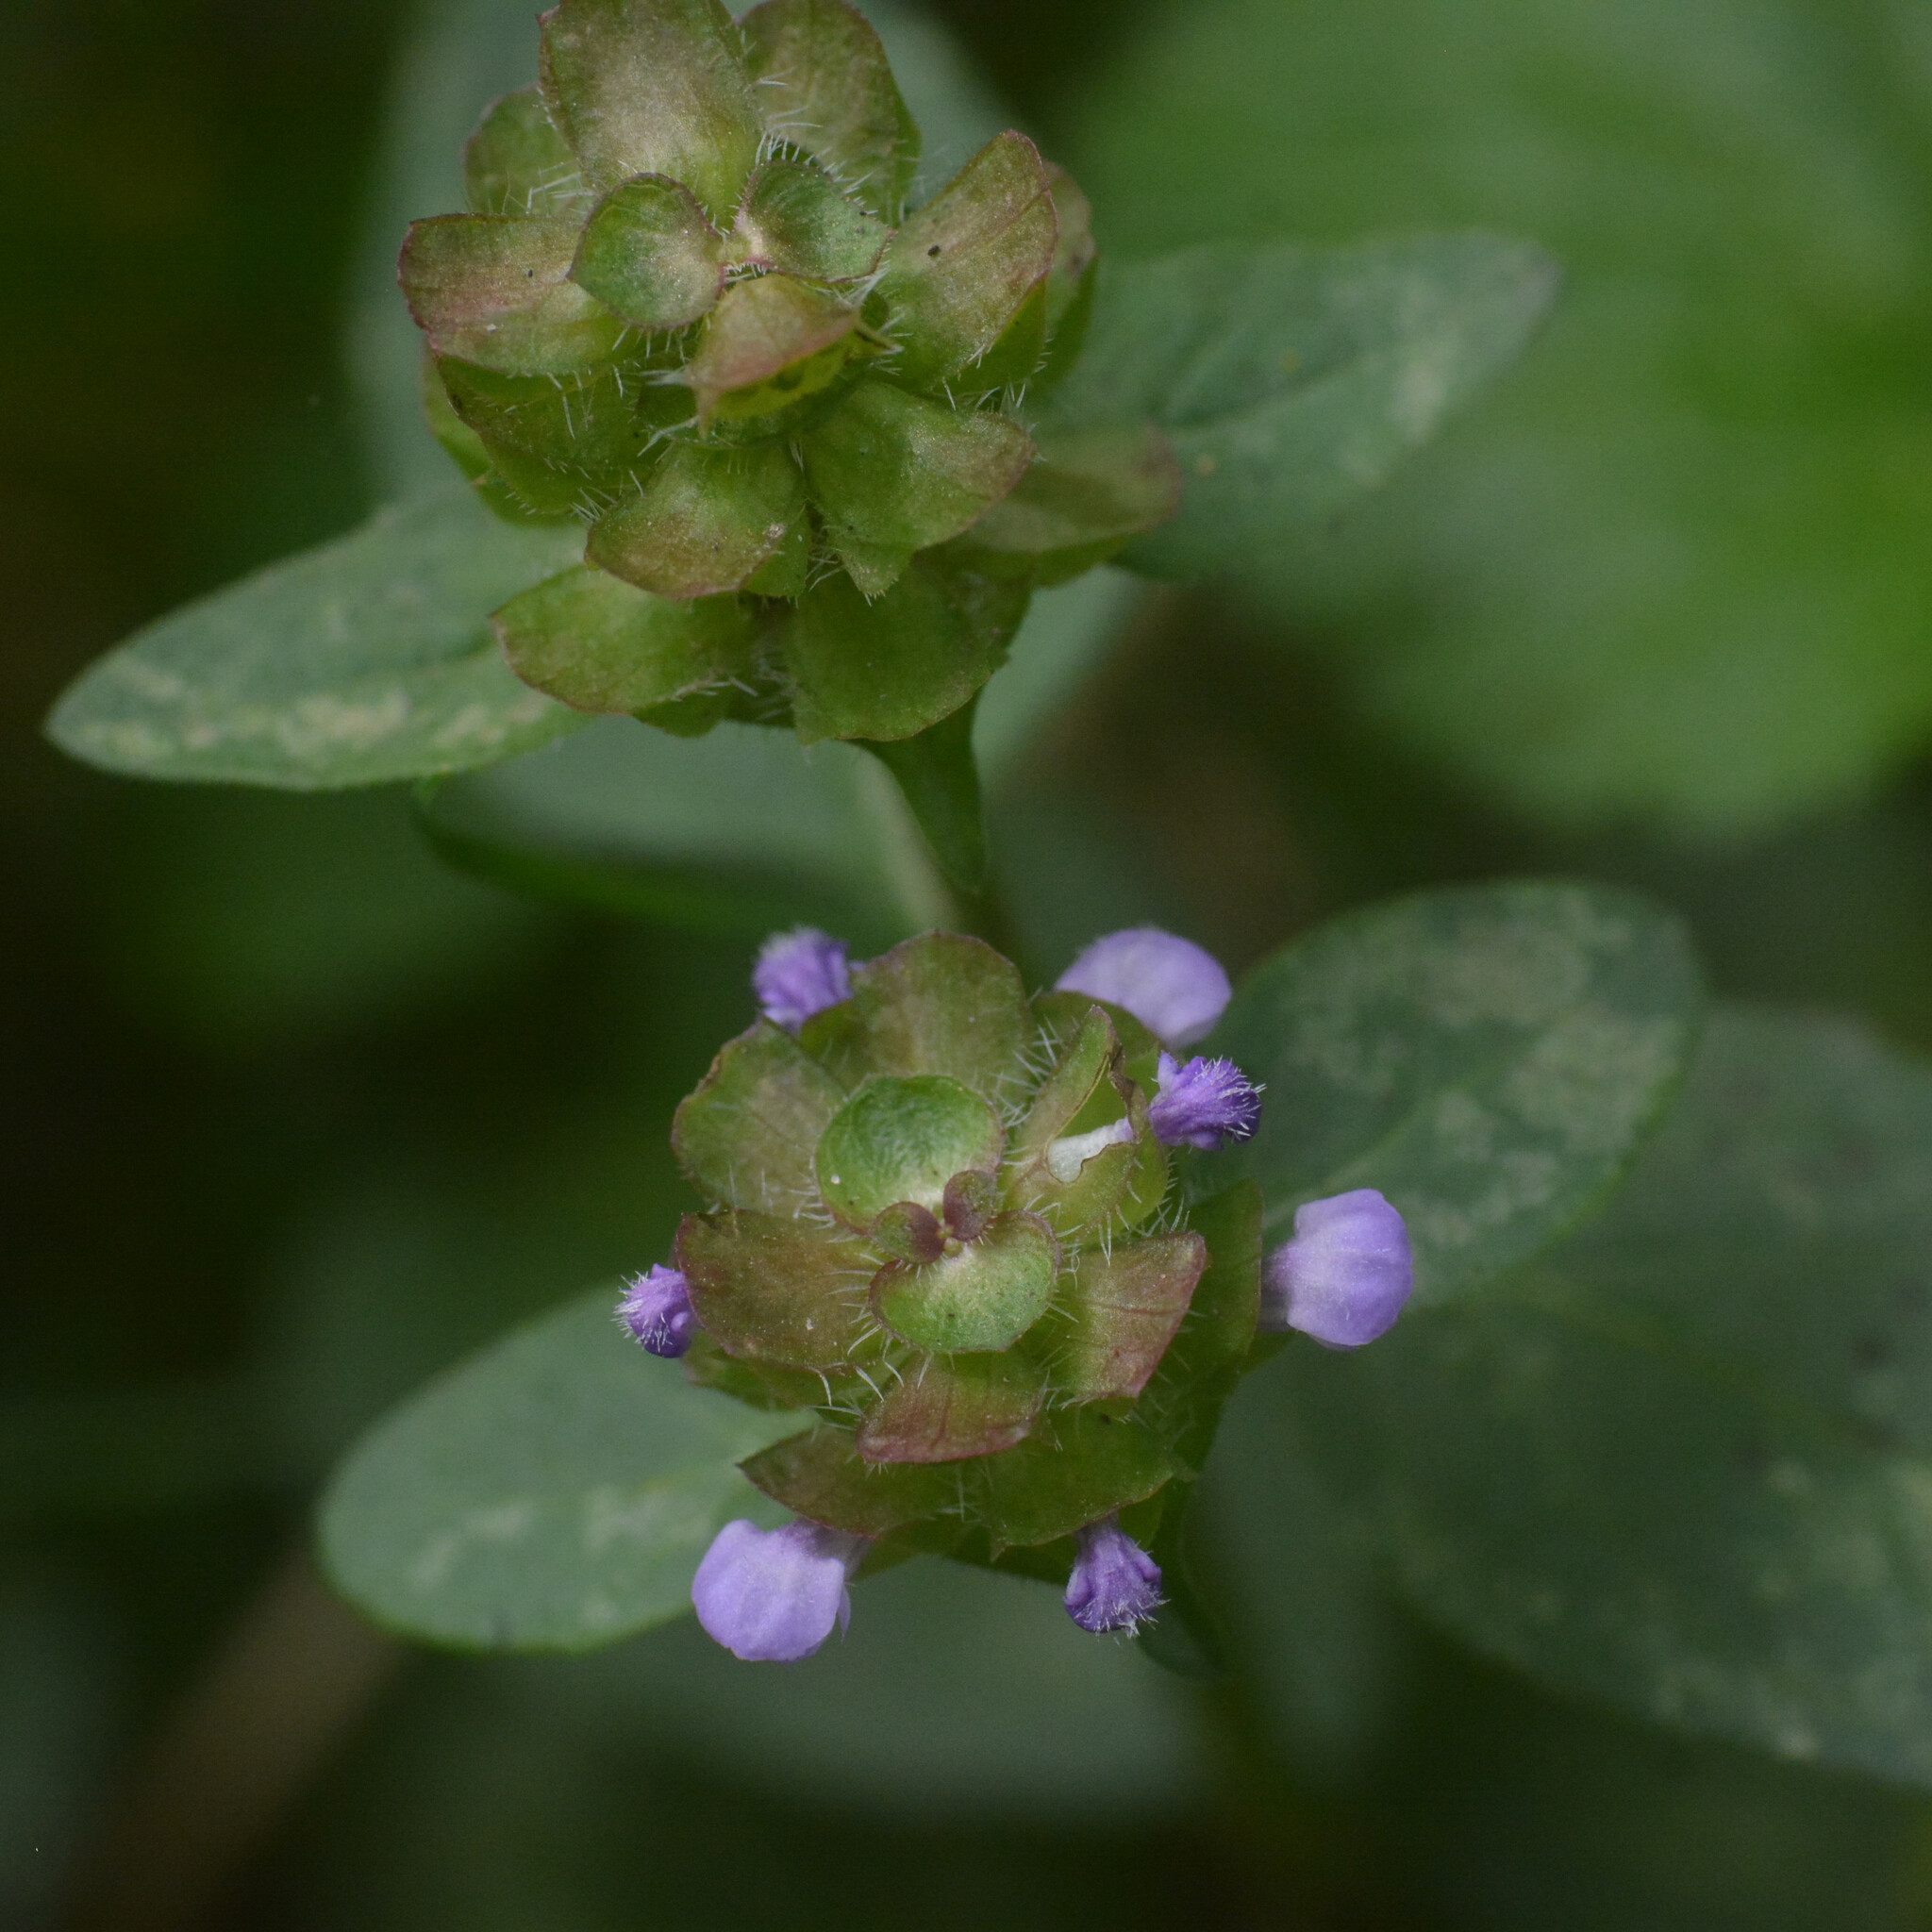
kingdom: Plantae
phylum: Tracheophyta
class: Magnoliopsida
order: Lamiales
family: Lamiaceae
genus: Prunella
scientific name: Prunella vulgaris
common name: Heal-all
